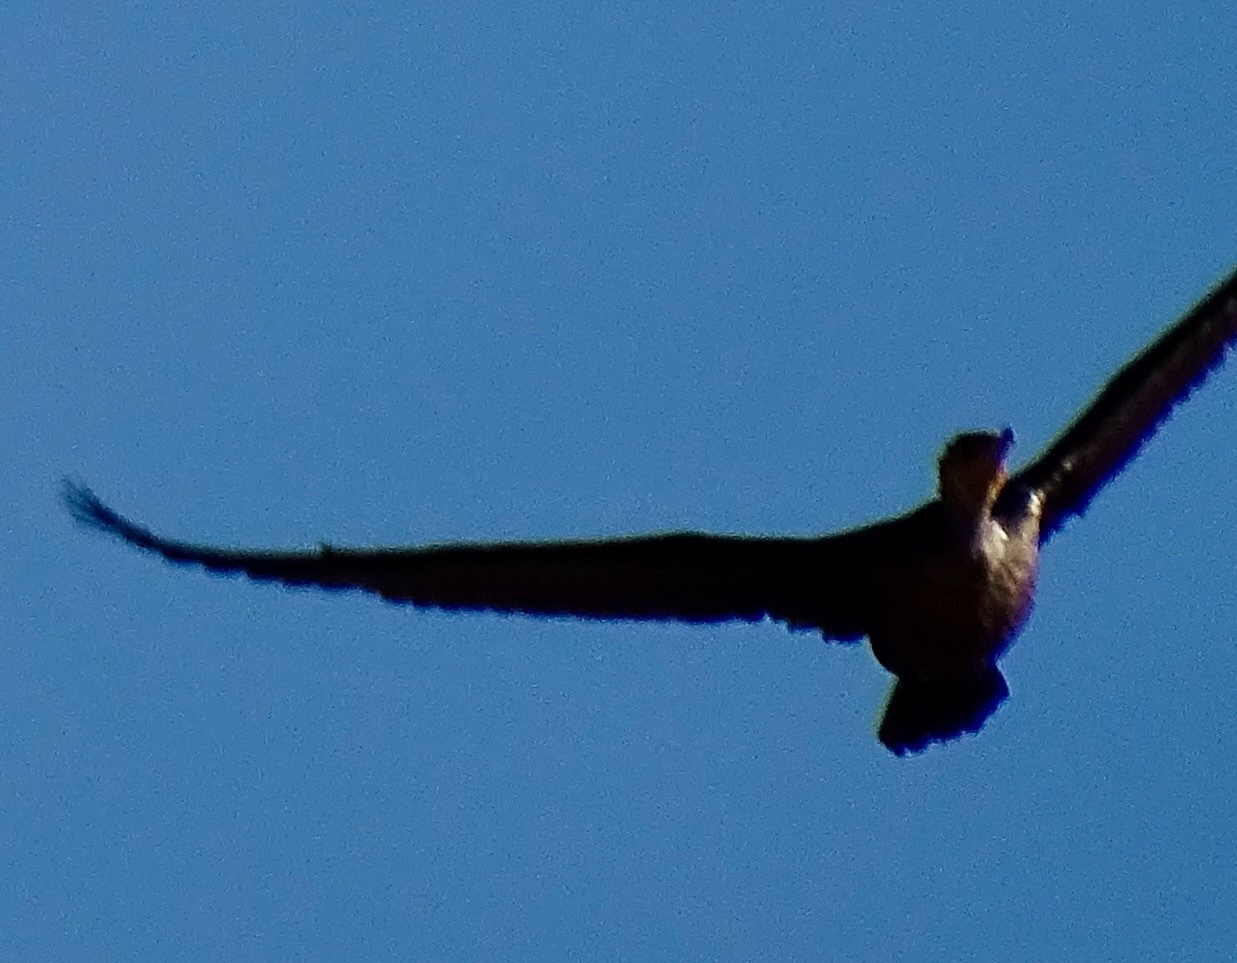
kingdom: Animalia
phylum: Chordata
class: Aves
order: Suliformes
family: Phalacrocoracidae
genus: Phalacrocorax
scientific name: Phalacrocorax auritus
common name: Double-crested cormorant
